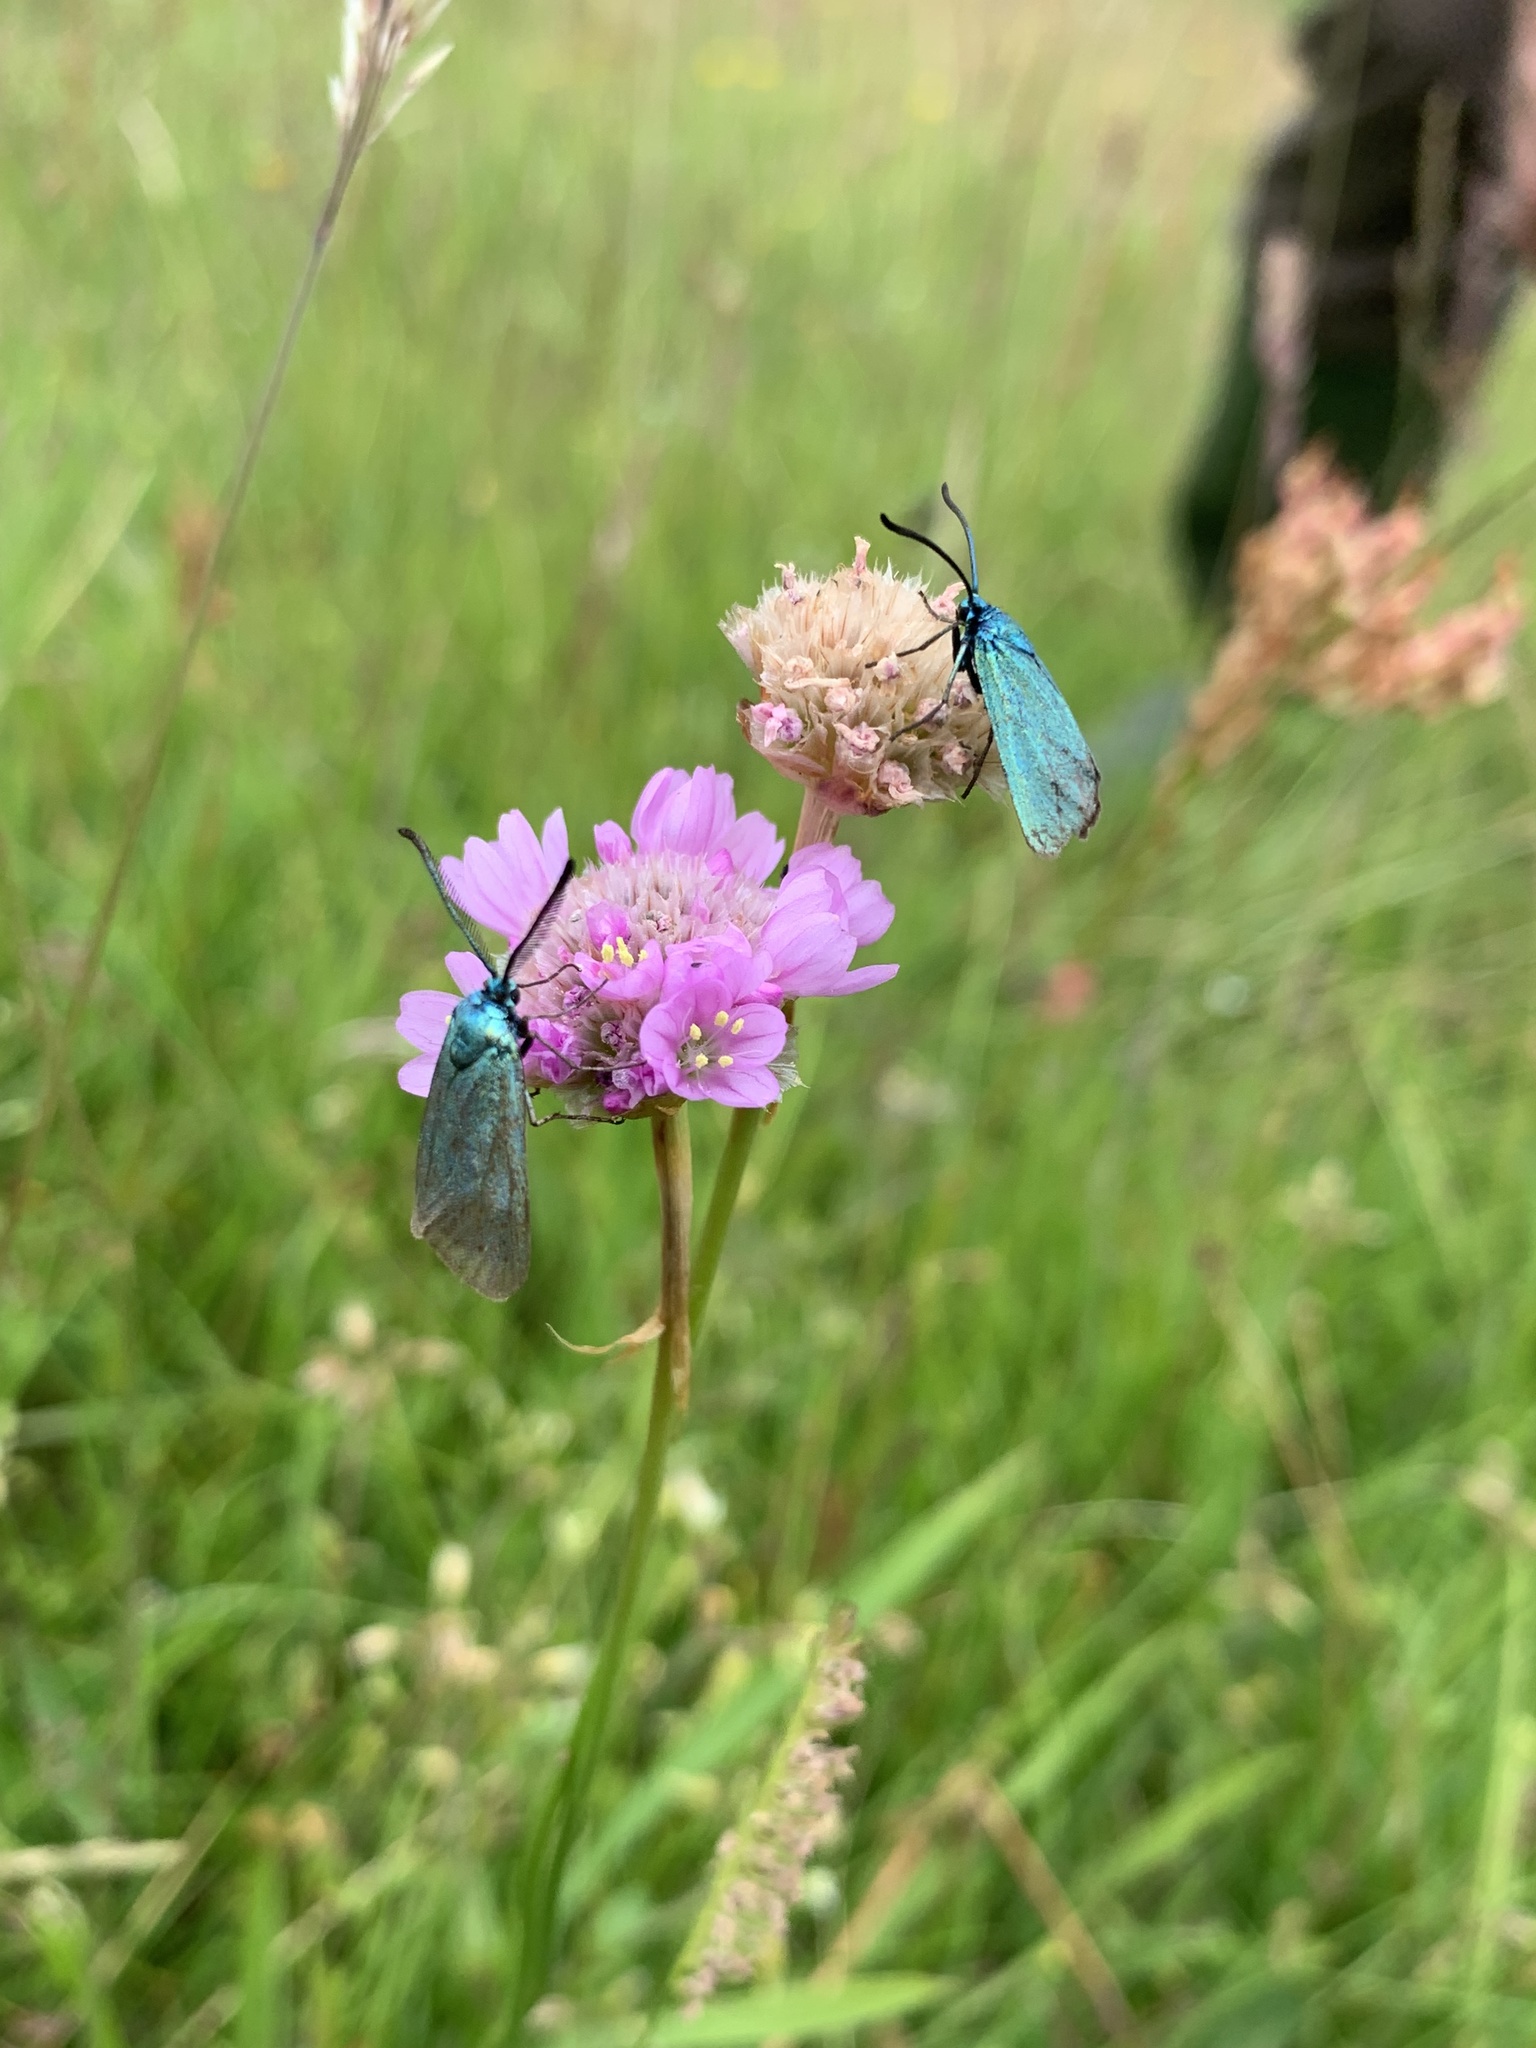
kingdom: Animalia
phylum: Arthropoda
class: Insecta
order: Lepidoptera
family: Zygaenidae
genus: Adscita
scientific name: Adscita statices
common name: Forester
